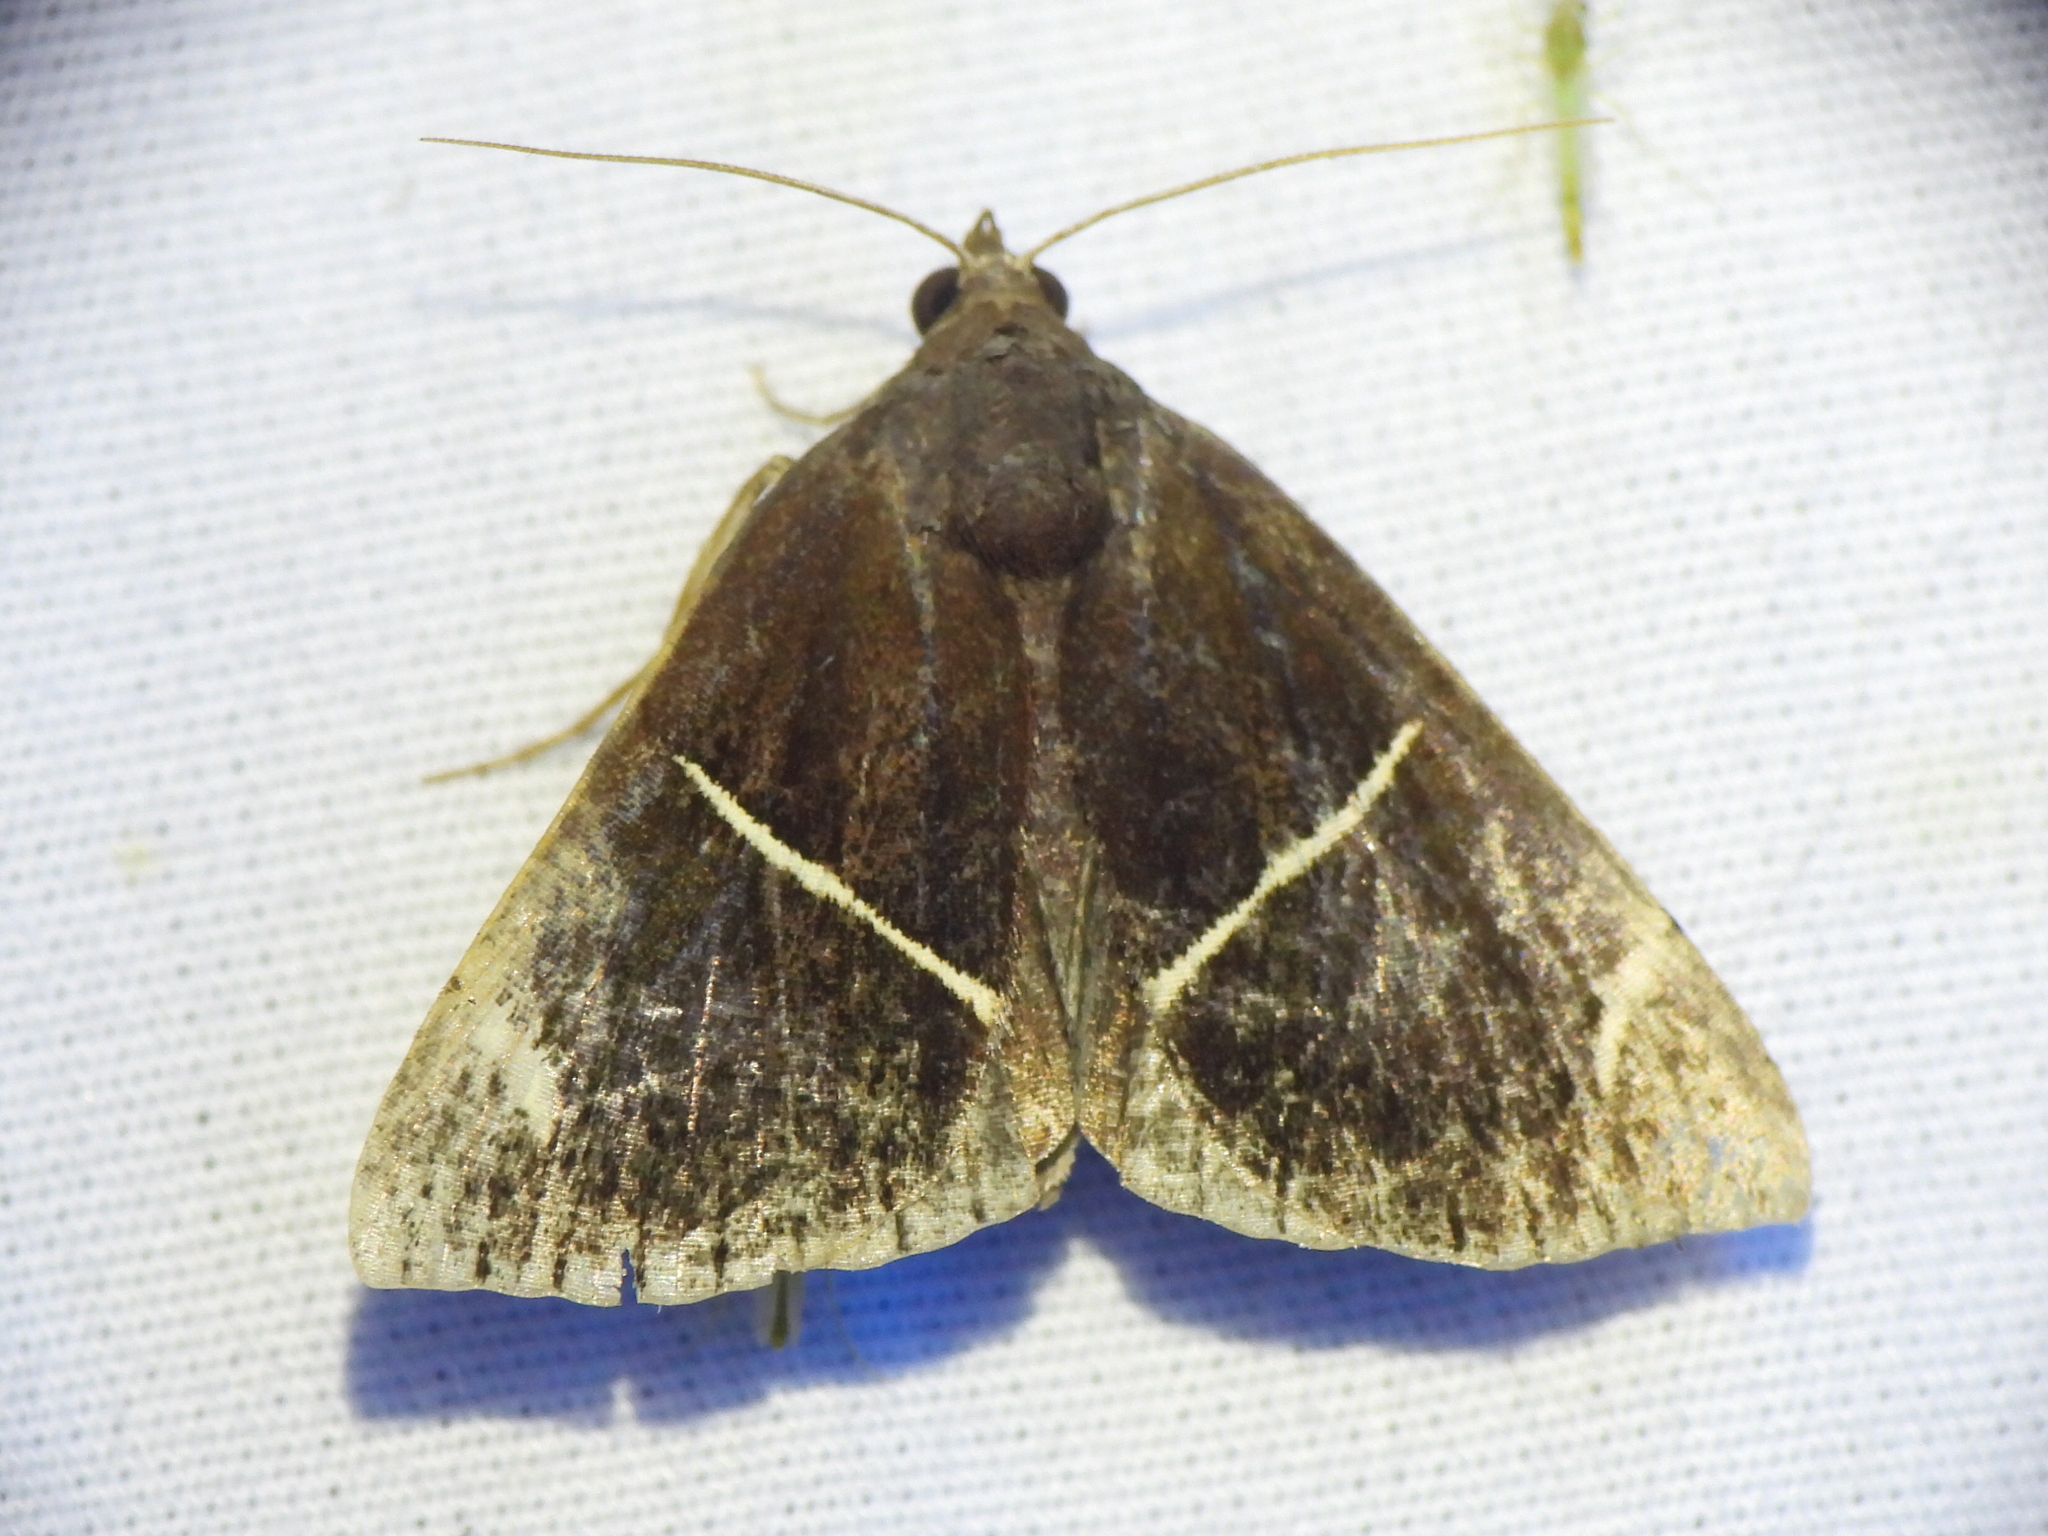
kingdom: Animalia
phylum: Arthropoda
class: Insecta
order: Lepidoptera
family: Erebidae
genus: Argyrostrotis
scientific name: Argyrostrotis anilis
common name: Short-lined chocolate
